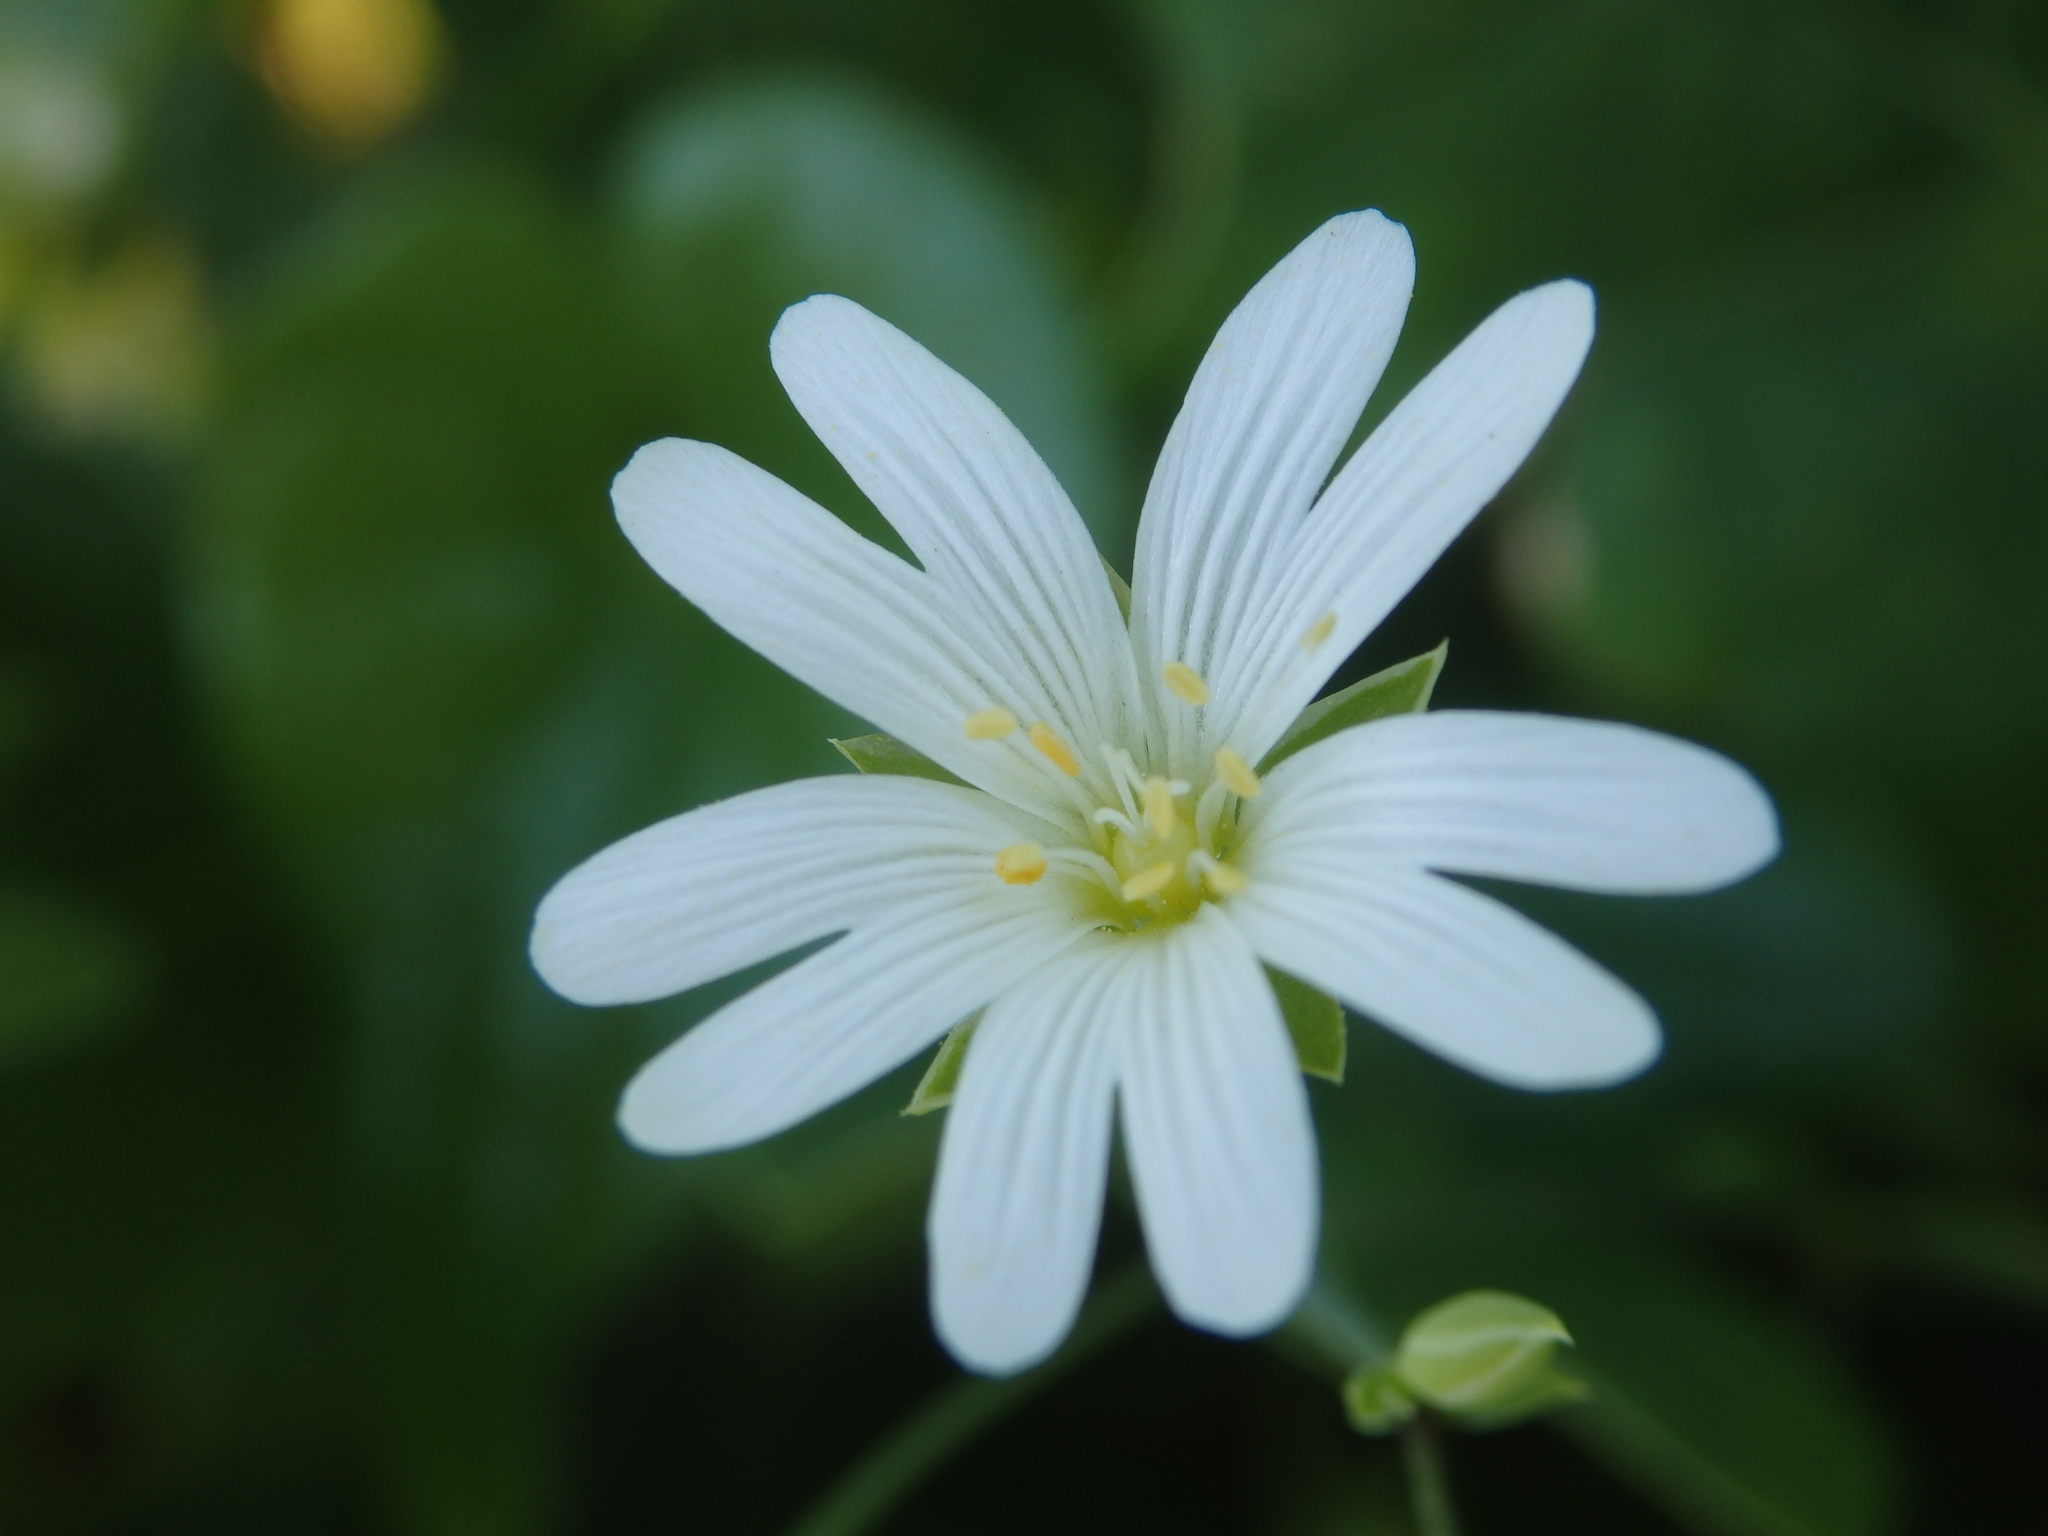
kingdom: Plantae
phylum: Tracheophyta
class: Magnoliopsida
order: Caryophyllales
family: Caryophyllaceae
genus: Rabelera
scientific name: Rabelera holostea
